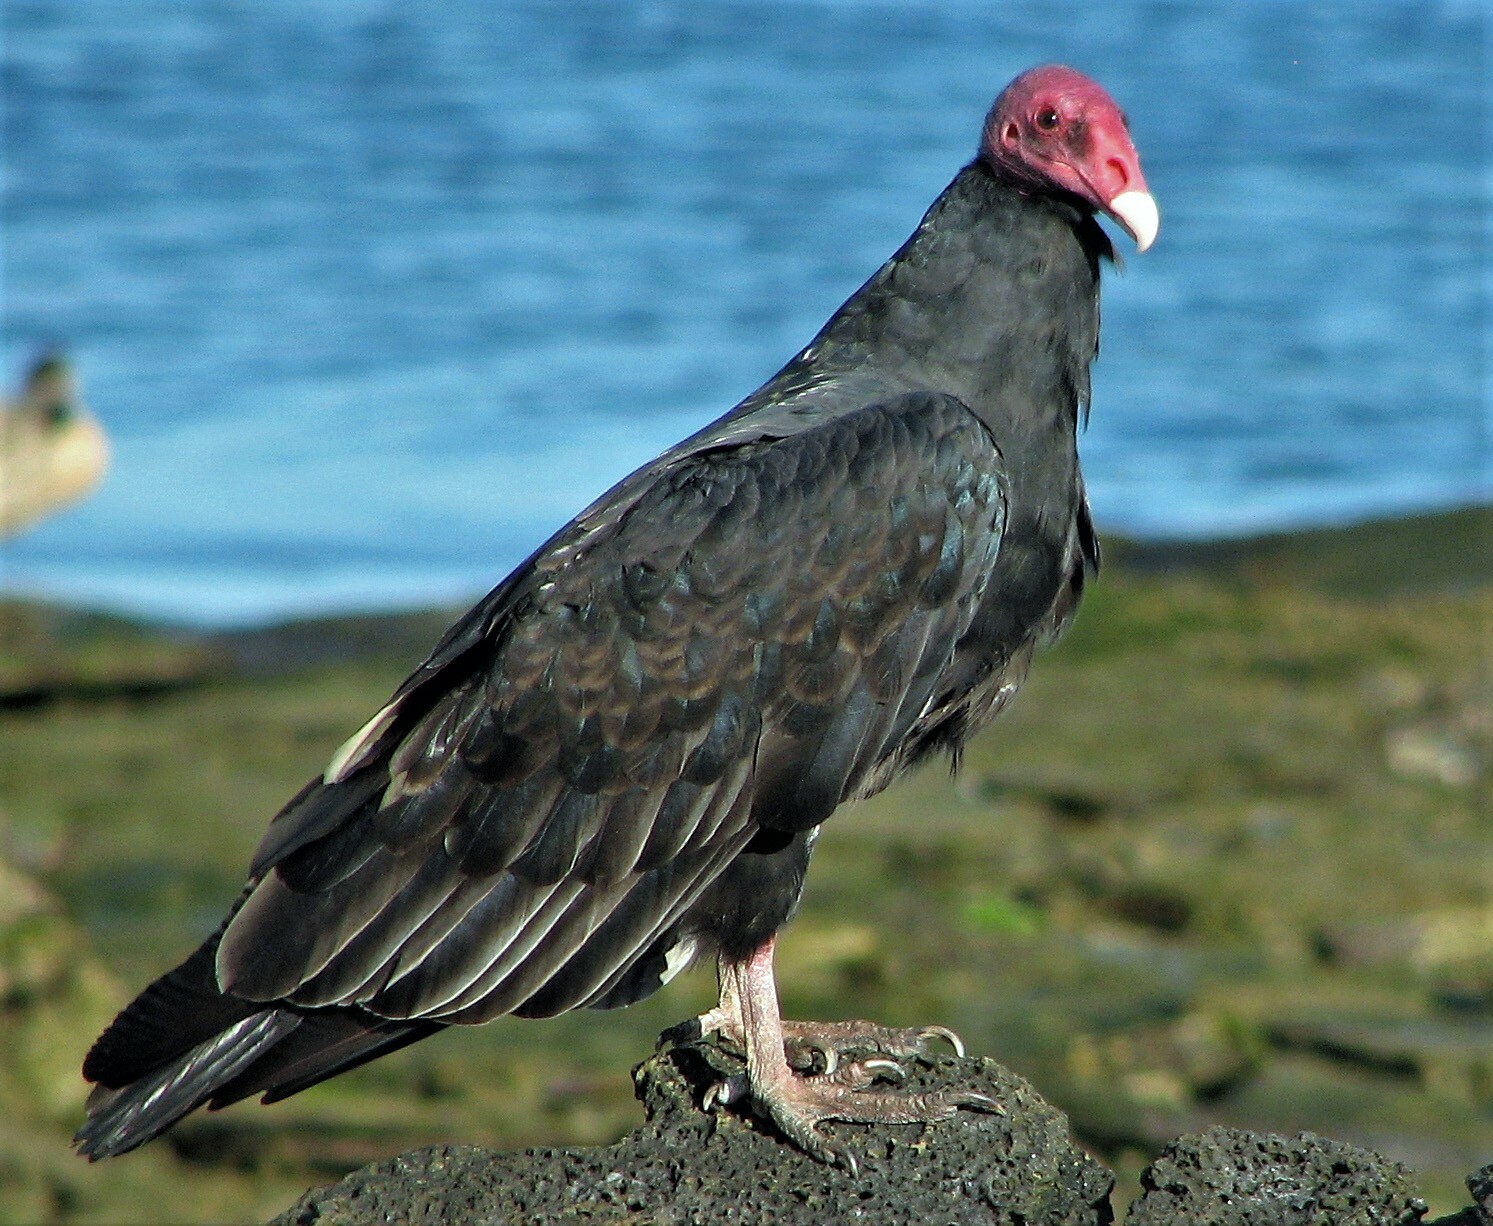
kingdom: Animalia
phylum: Chordata
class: Aves
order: Accipitriformes
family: Cathartidae
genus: Cathartes
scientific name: Cathartes aura
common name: Turkey vulture
